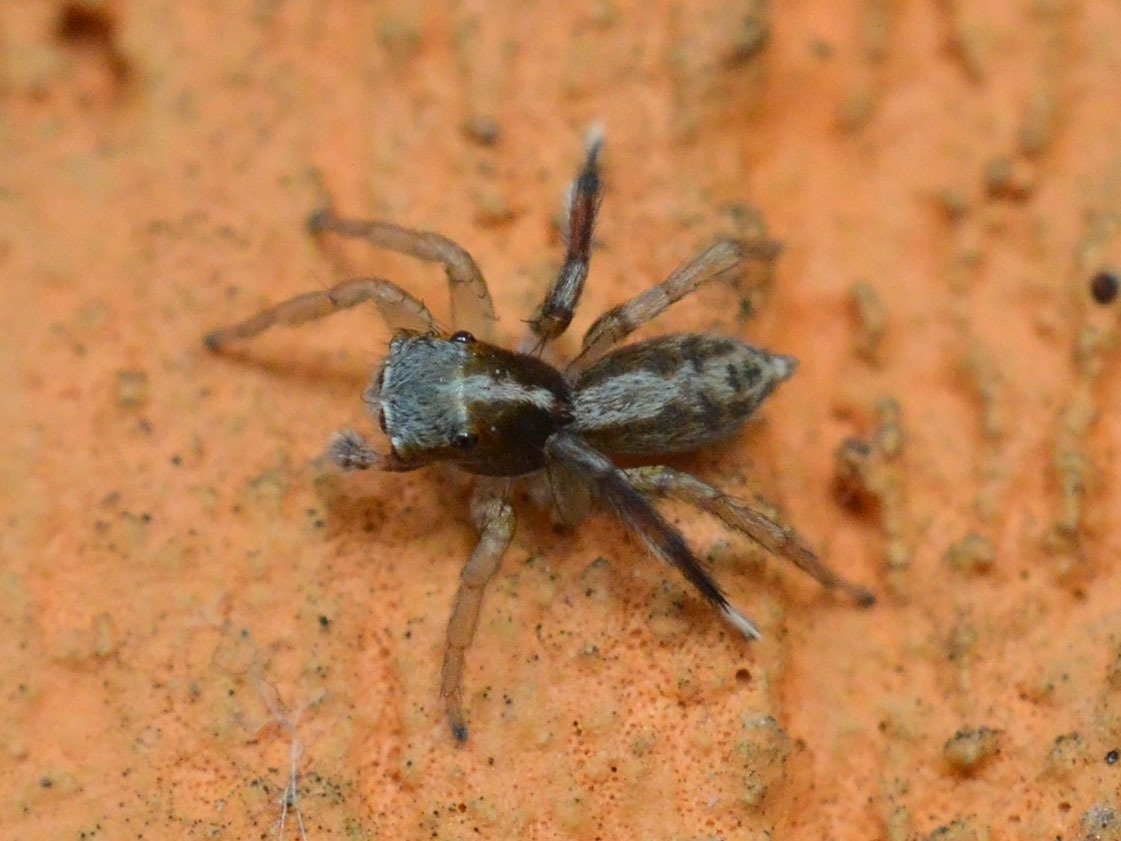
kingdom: Animalia
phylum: Arthropoda
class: Arachnida
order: Araneae
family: Salticidae
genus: Saitis
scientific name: Saitis tauricus
